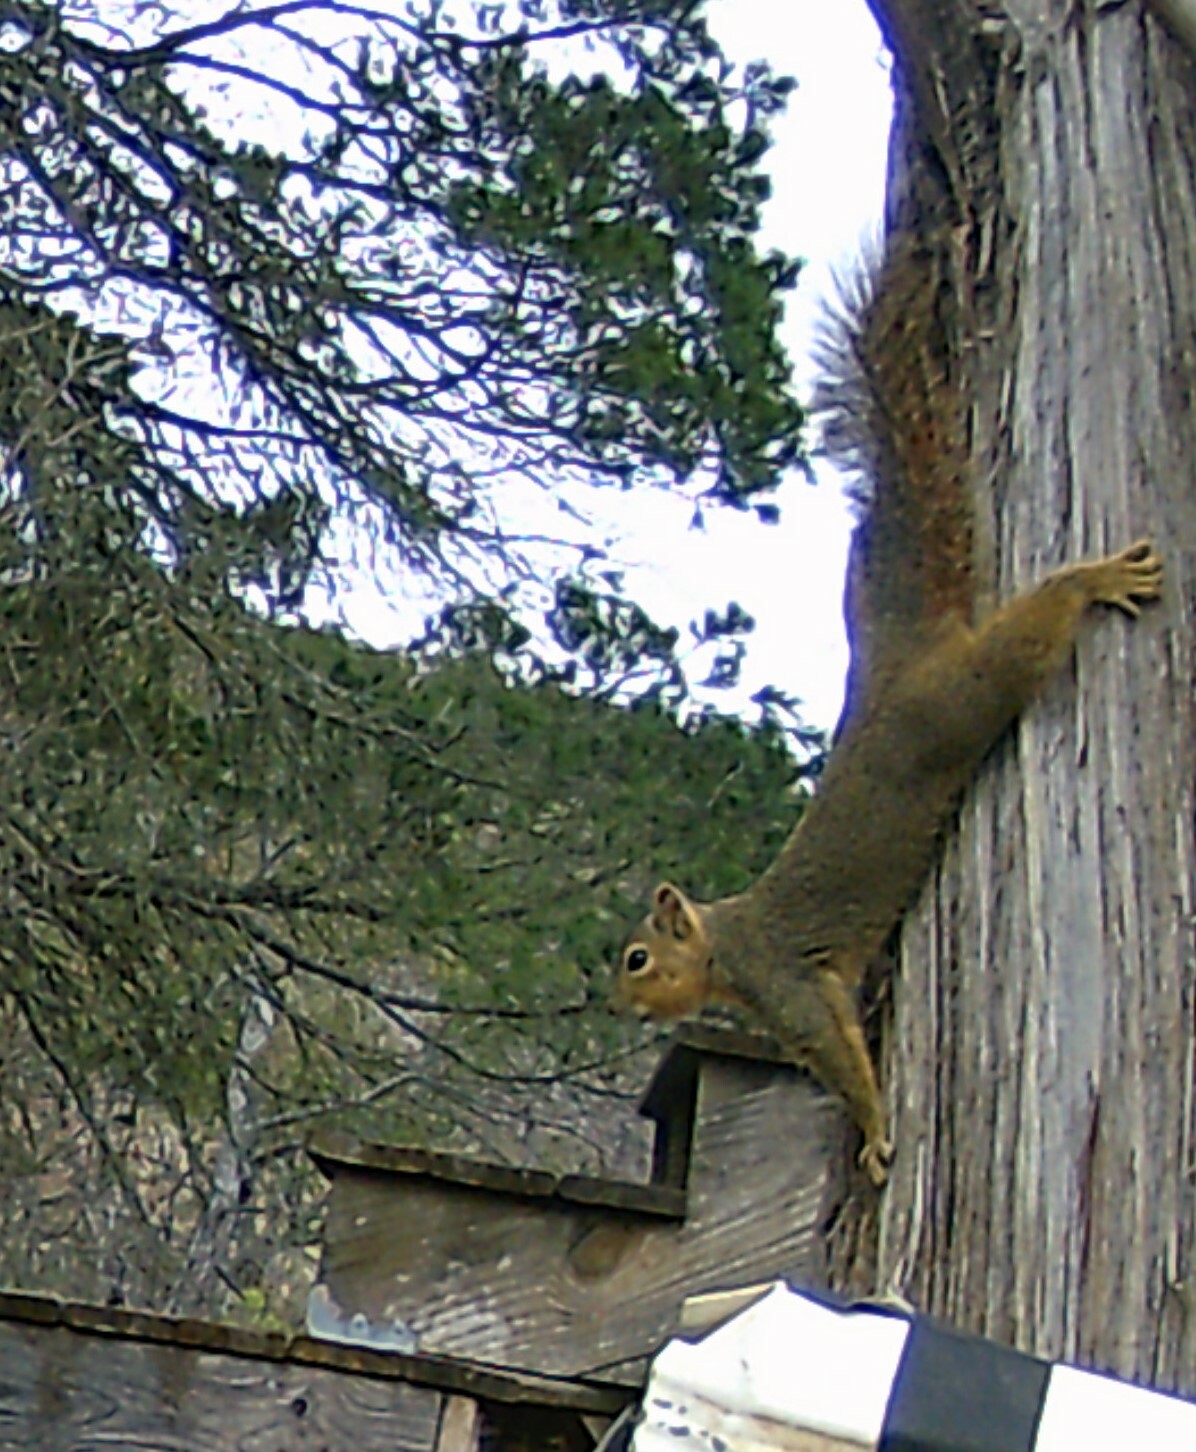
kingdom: Animalia
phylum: Chordata
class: Mammalia
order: Rodentia
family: Sciuridae
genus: Sciurus
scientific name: Sciurus niger
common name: Fox squirrel
